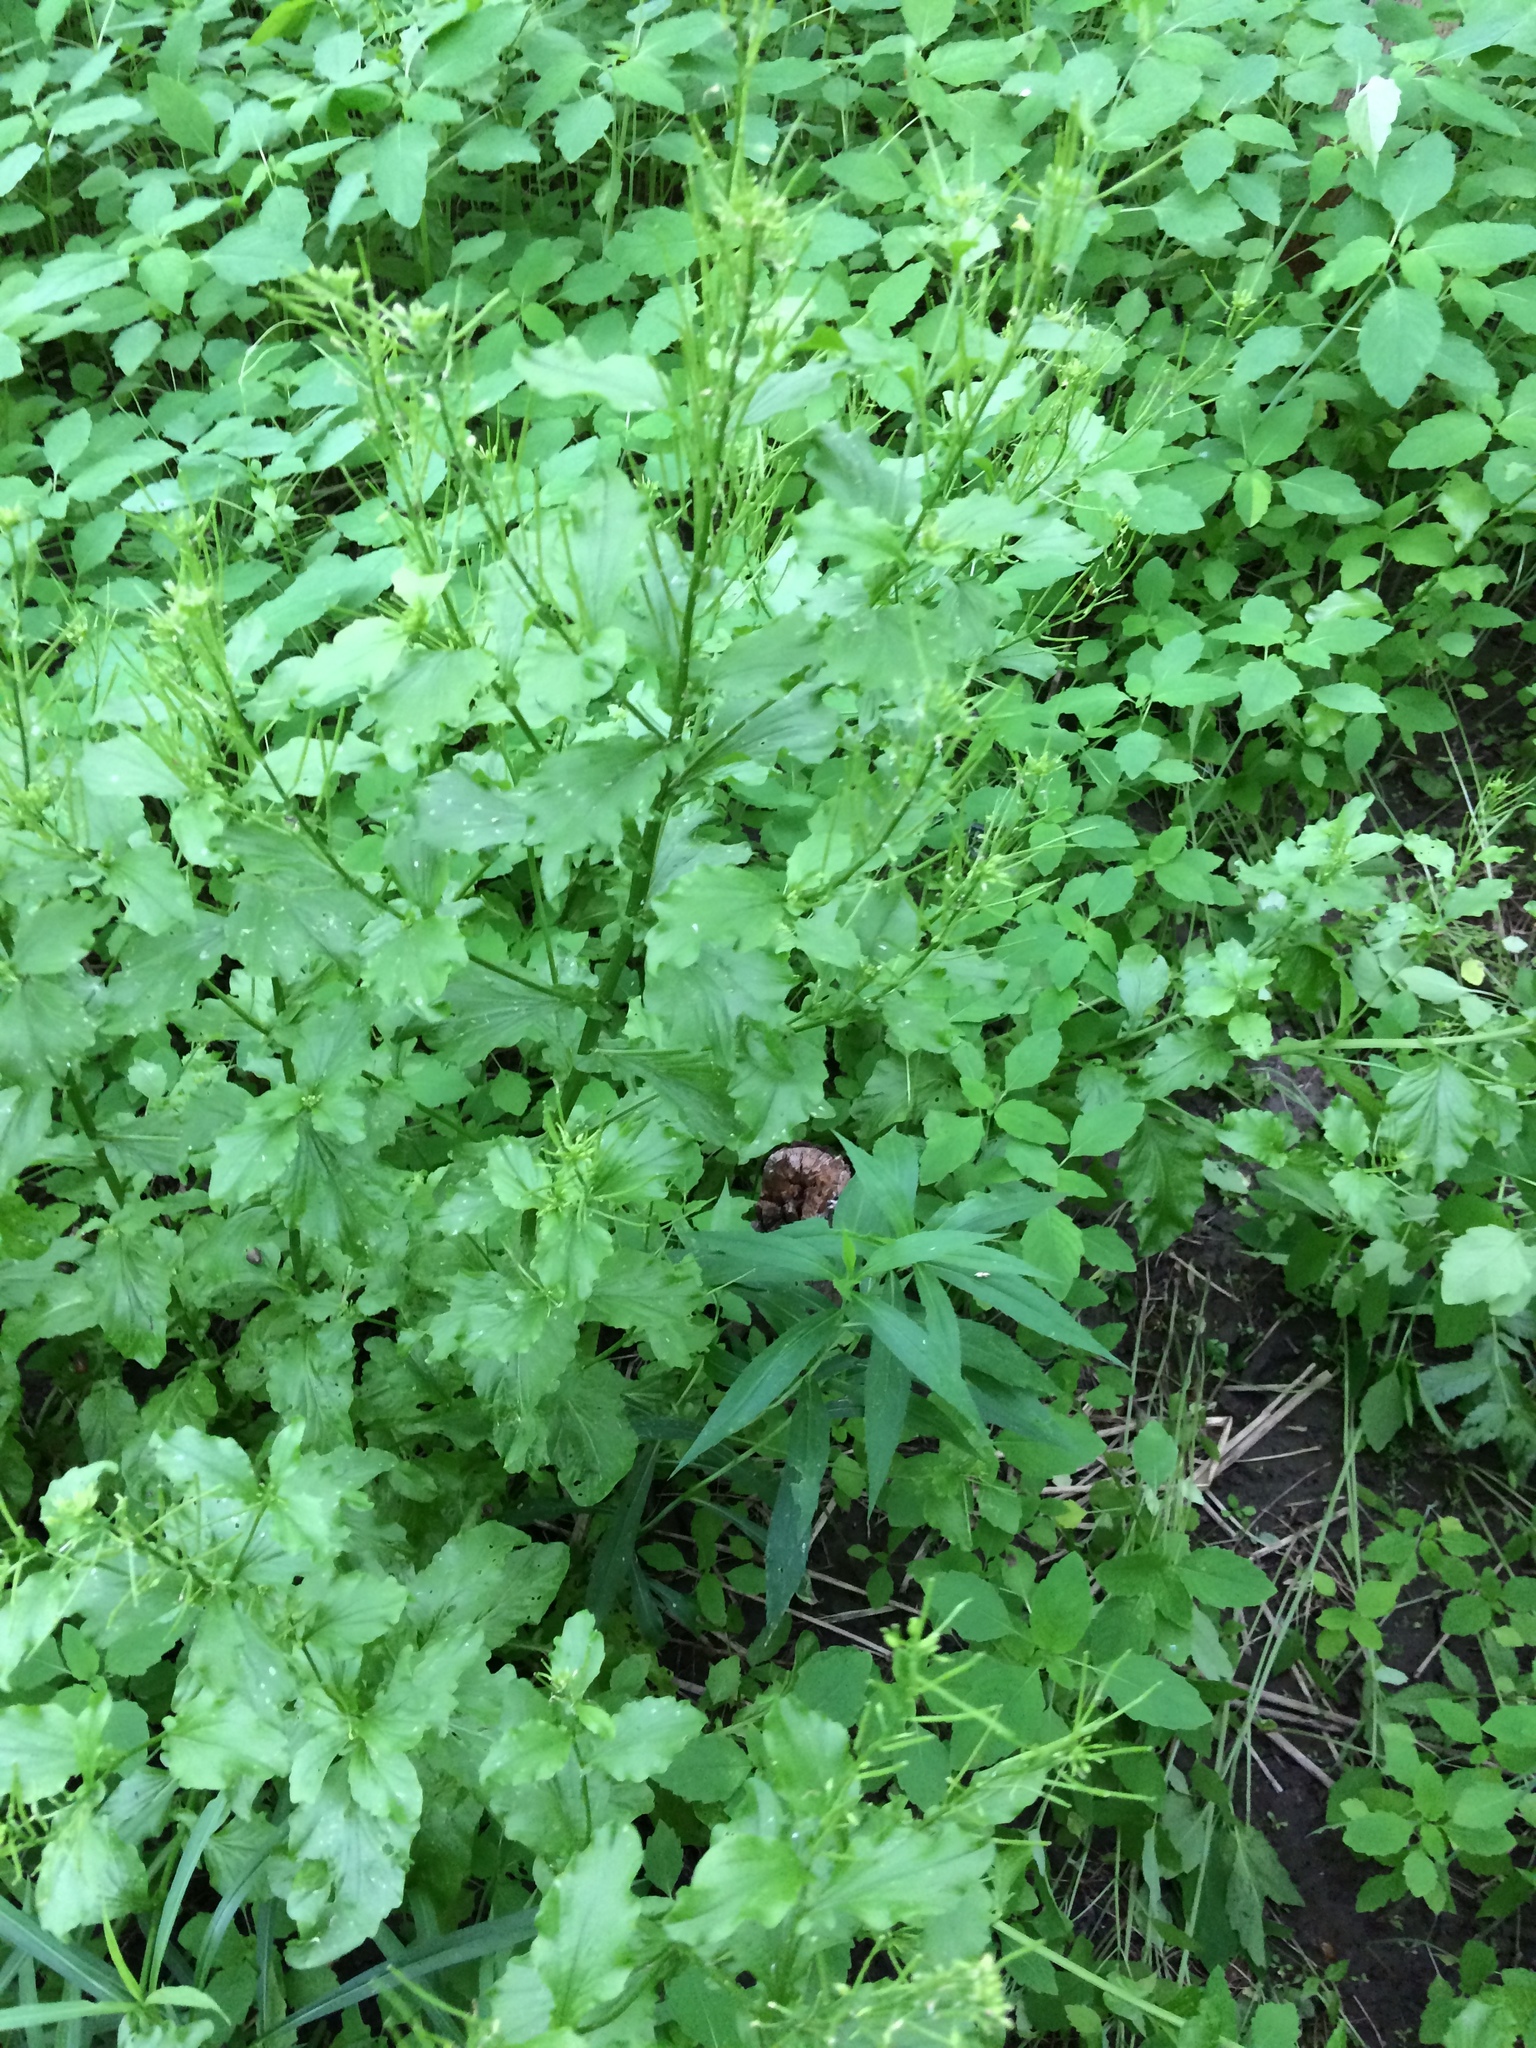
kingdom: Plantae
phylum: Tracheophyta
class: Magnoliopsida
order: Brassicales
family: Brassicaceae
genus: Barbarea
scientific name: Barbarea vulgaris
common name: Cressy-greens
